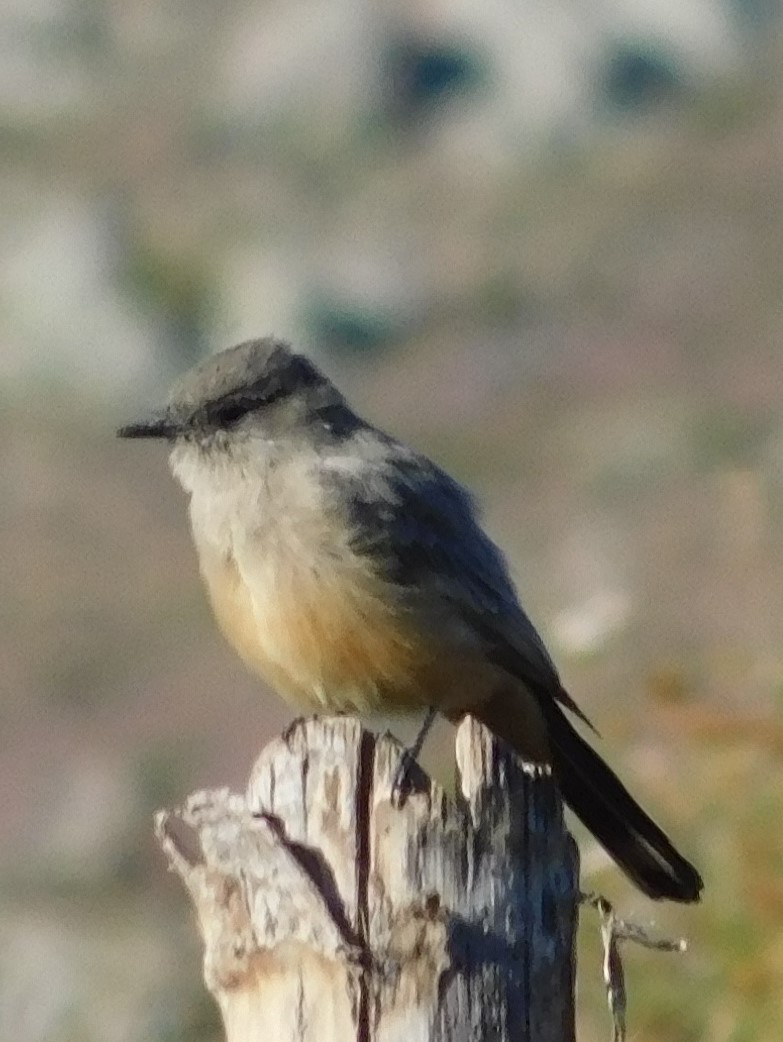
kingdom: Animalia
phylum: Chordata
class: Aves
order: Passeriformes
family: Tyrannidae
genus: Sayornis
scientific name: Sayornis saya
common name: Say's phoebe
